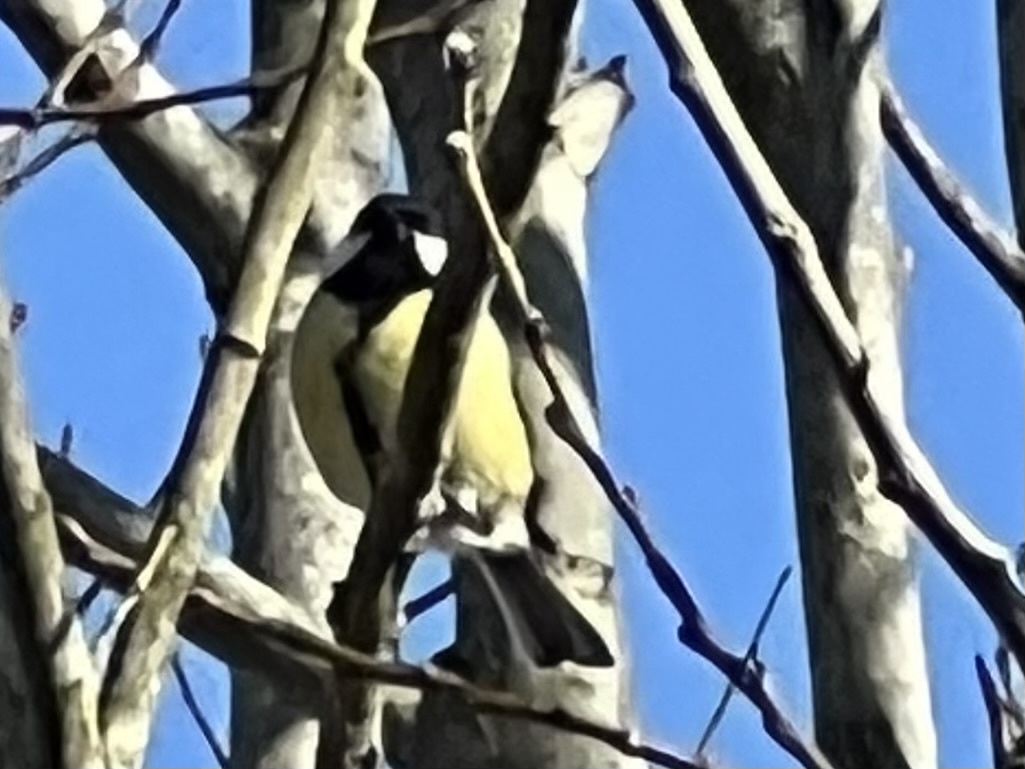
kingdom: Animalia
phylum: Chordata
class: Aves
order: Passeriformes
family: Paridae
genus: Parus
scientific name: Parus major
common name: Great tit
